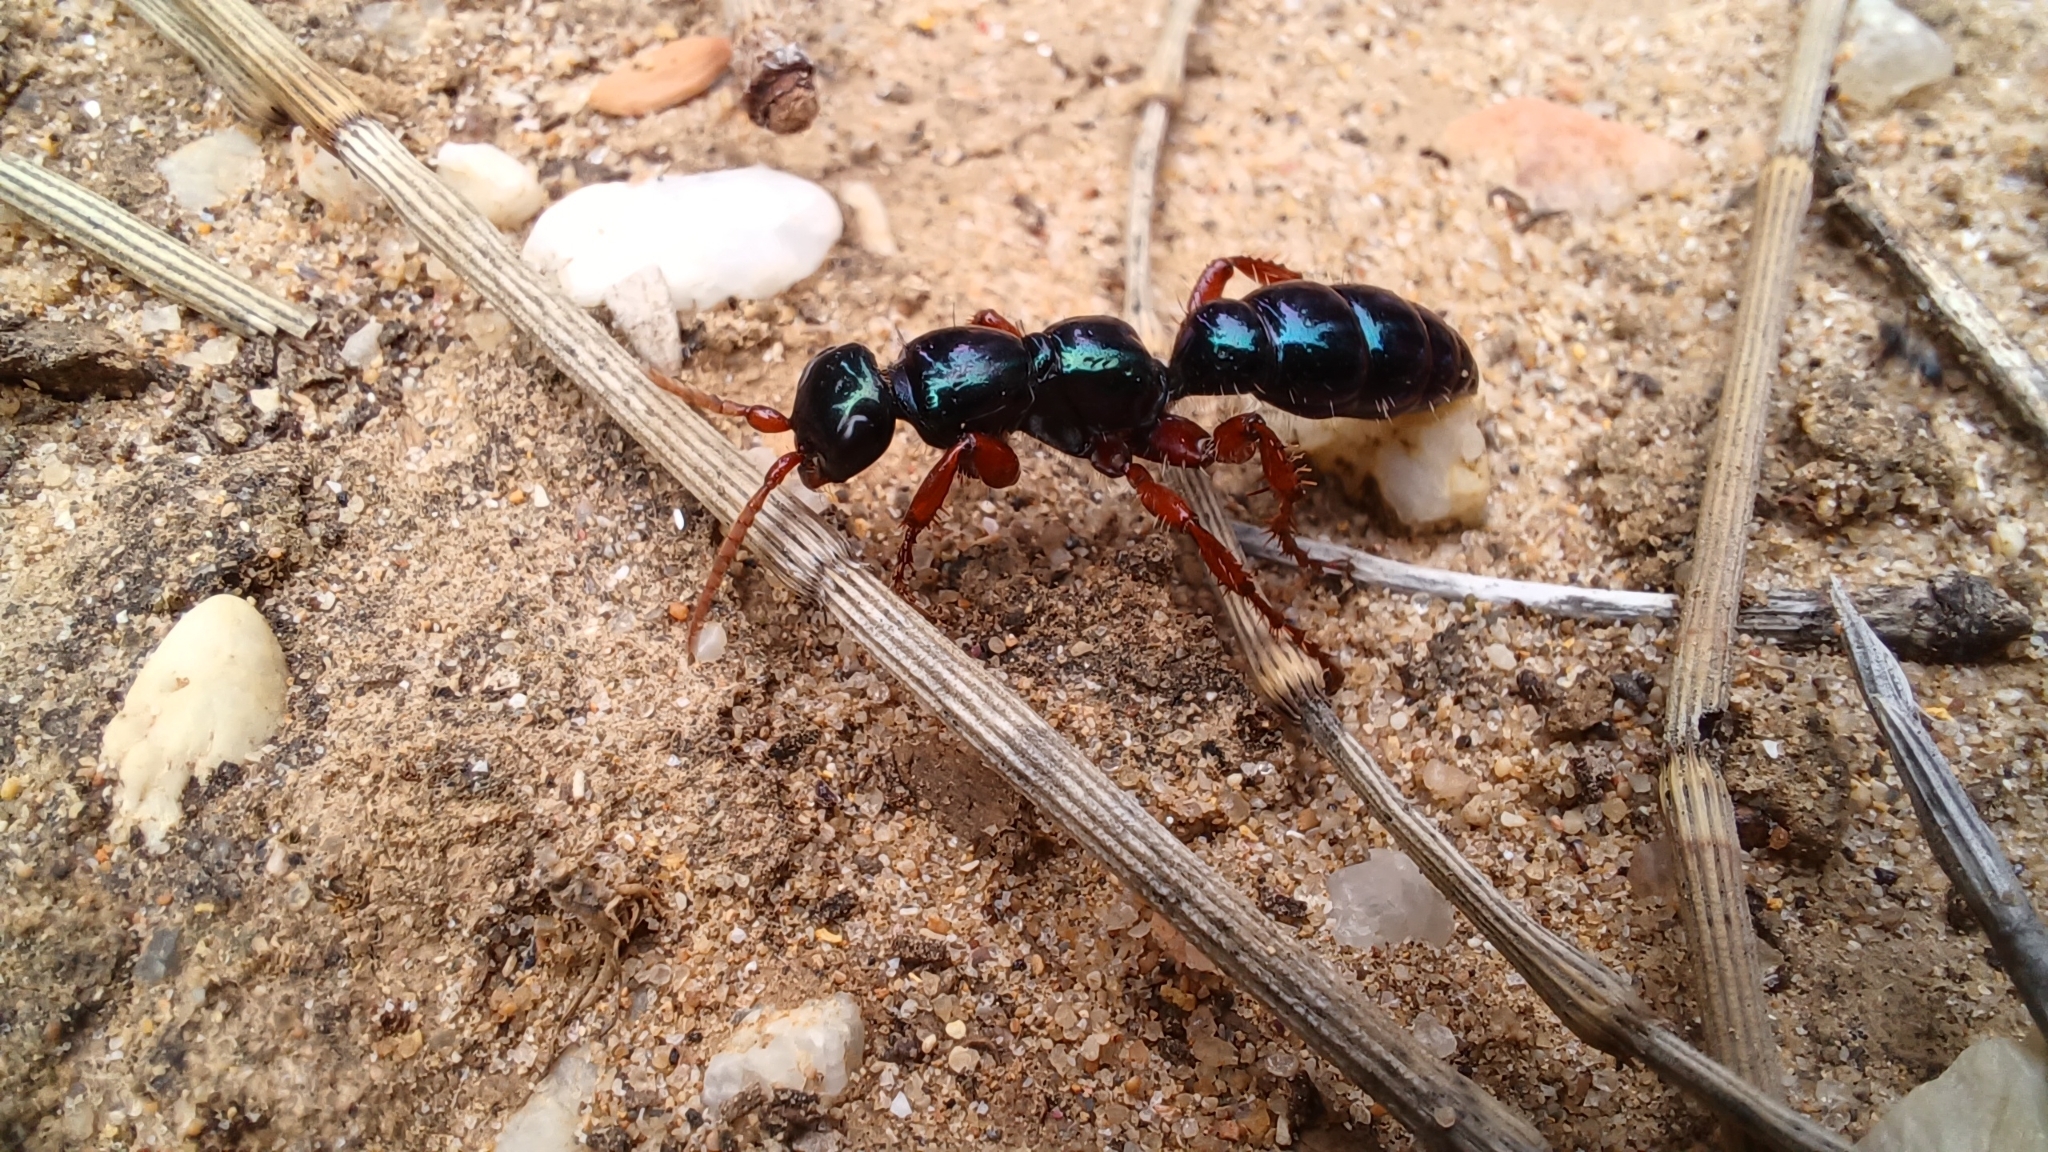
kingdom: Animalia
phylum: Arthropoda
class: Insecta
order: Hymenoptera
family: Tiphiidae
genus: Diamma
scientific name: Diamma
